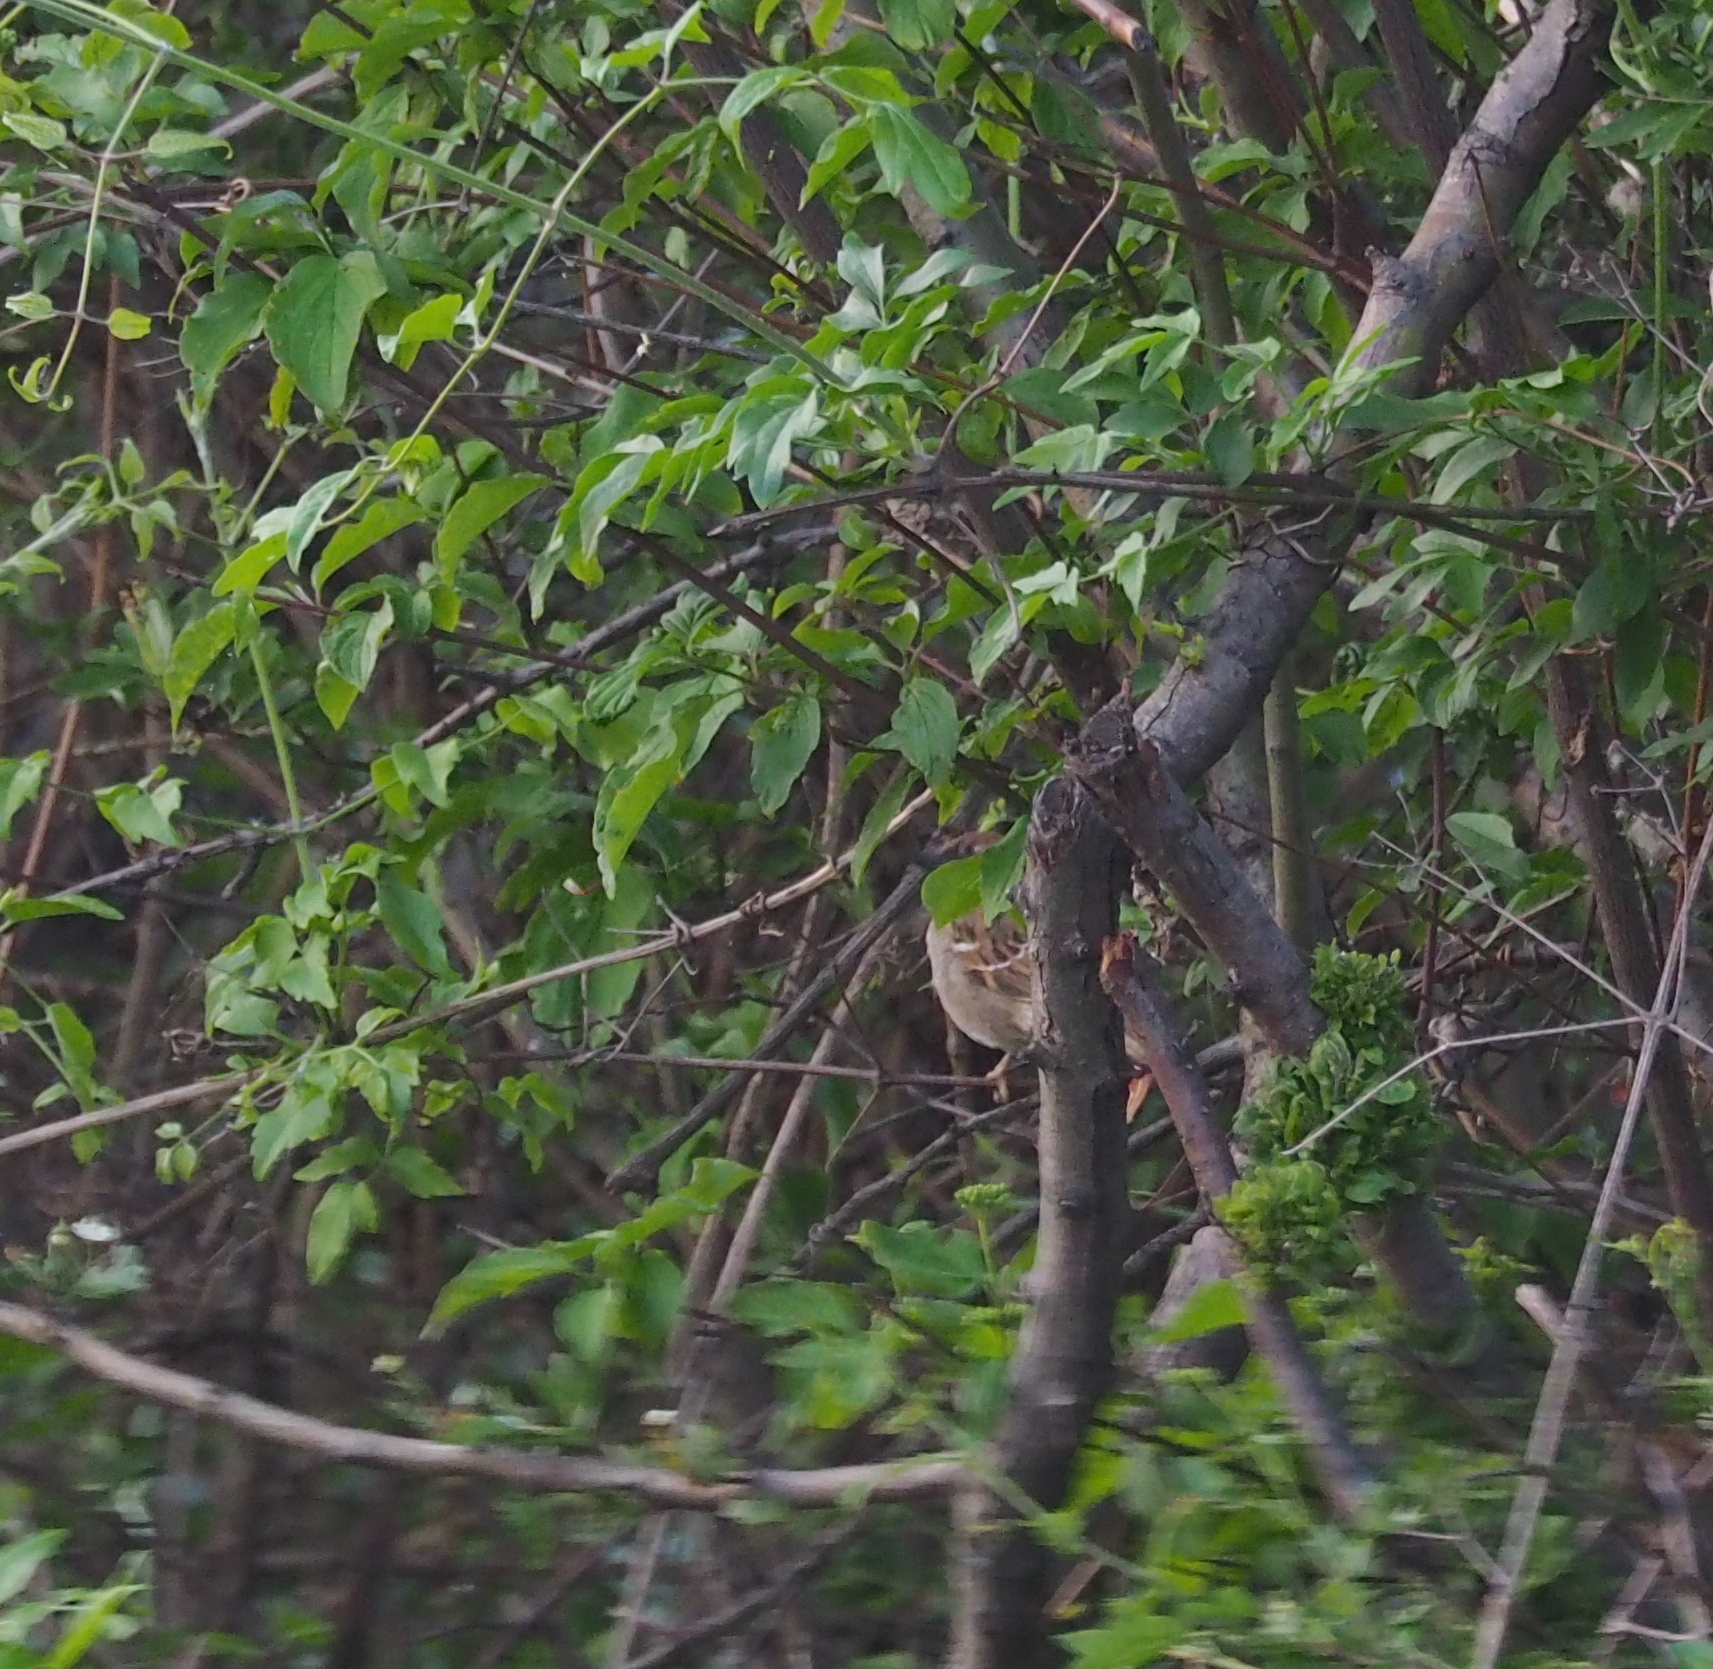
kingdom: Animalia
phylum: Chordata
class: Aves
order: Passeriformes
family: Passeridae
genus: Passer
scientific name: Passer montanus
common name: Eurasian tree sparrow
